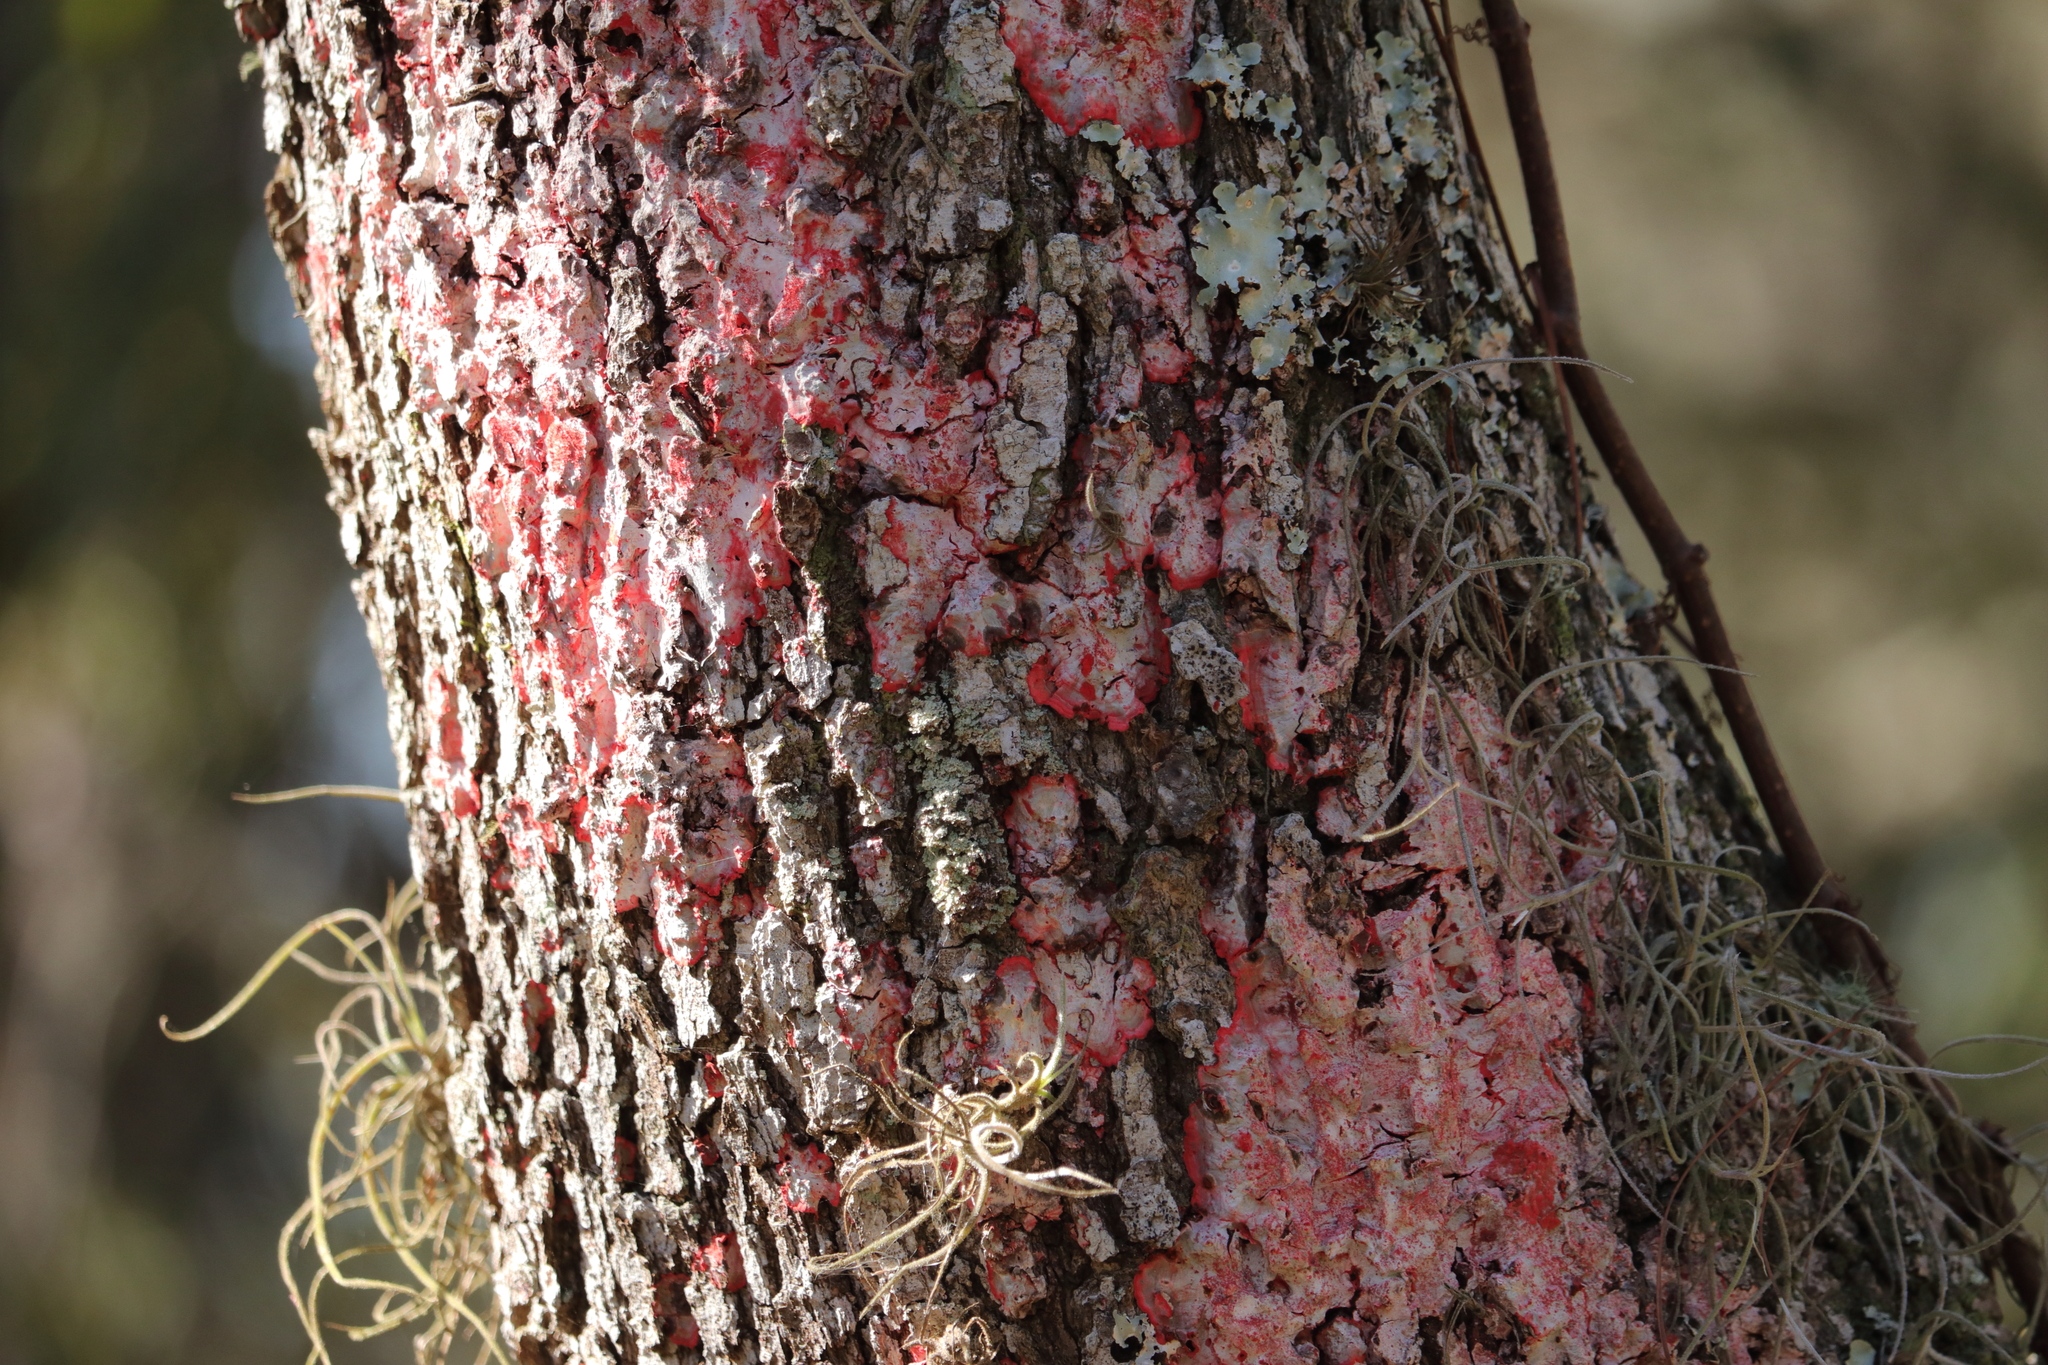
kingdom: Fungi
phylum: Ascomycota
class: Arthoniomycetes
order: Arthoniales
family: Arthoniaceae
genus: Herpothallon
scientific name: Herpothallon rubrocinctum
